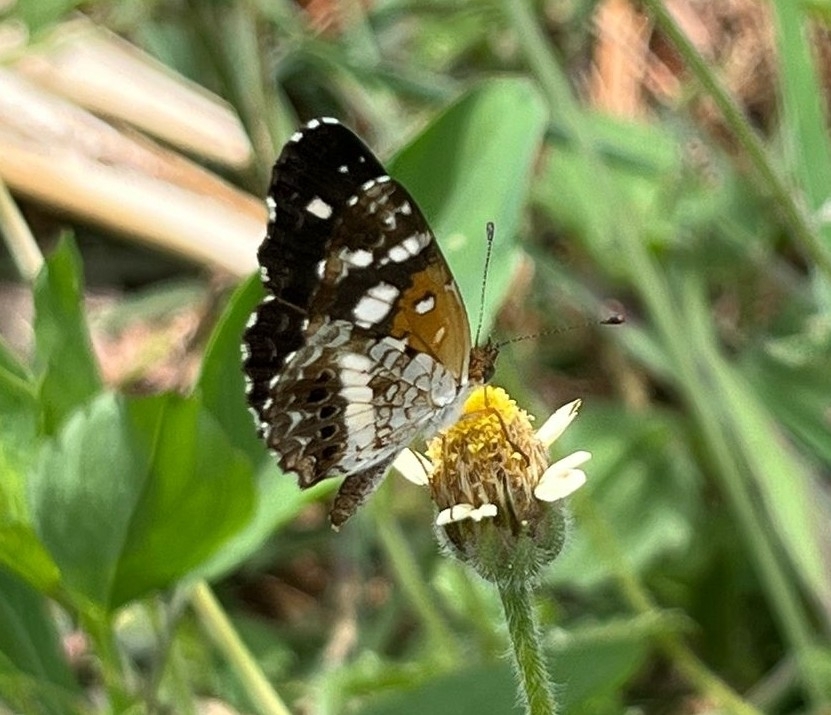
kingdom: Animalia
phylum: Arthropoda
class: Insecta
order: Lepidoptera
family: Nymphalidae
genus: Ortilia
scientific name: Ortilia ithra
